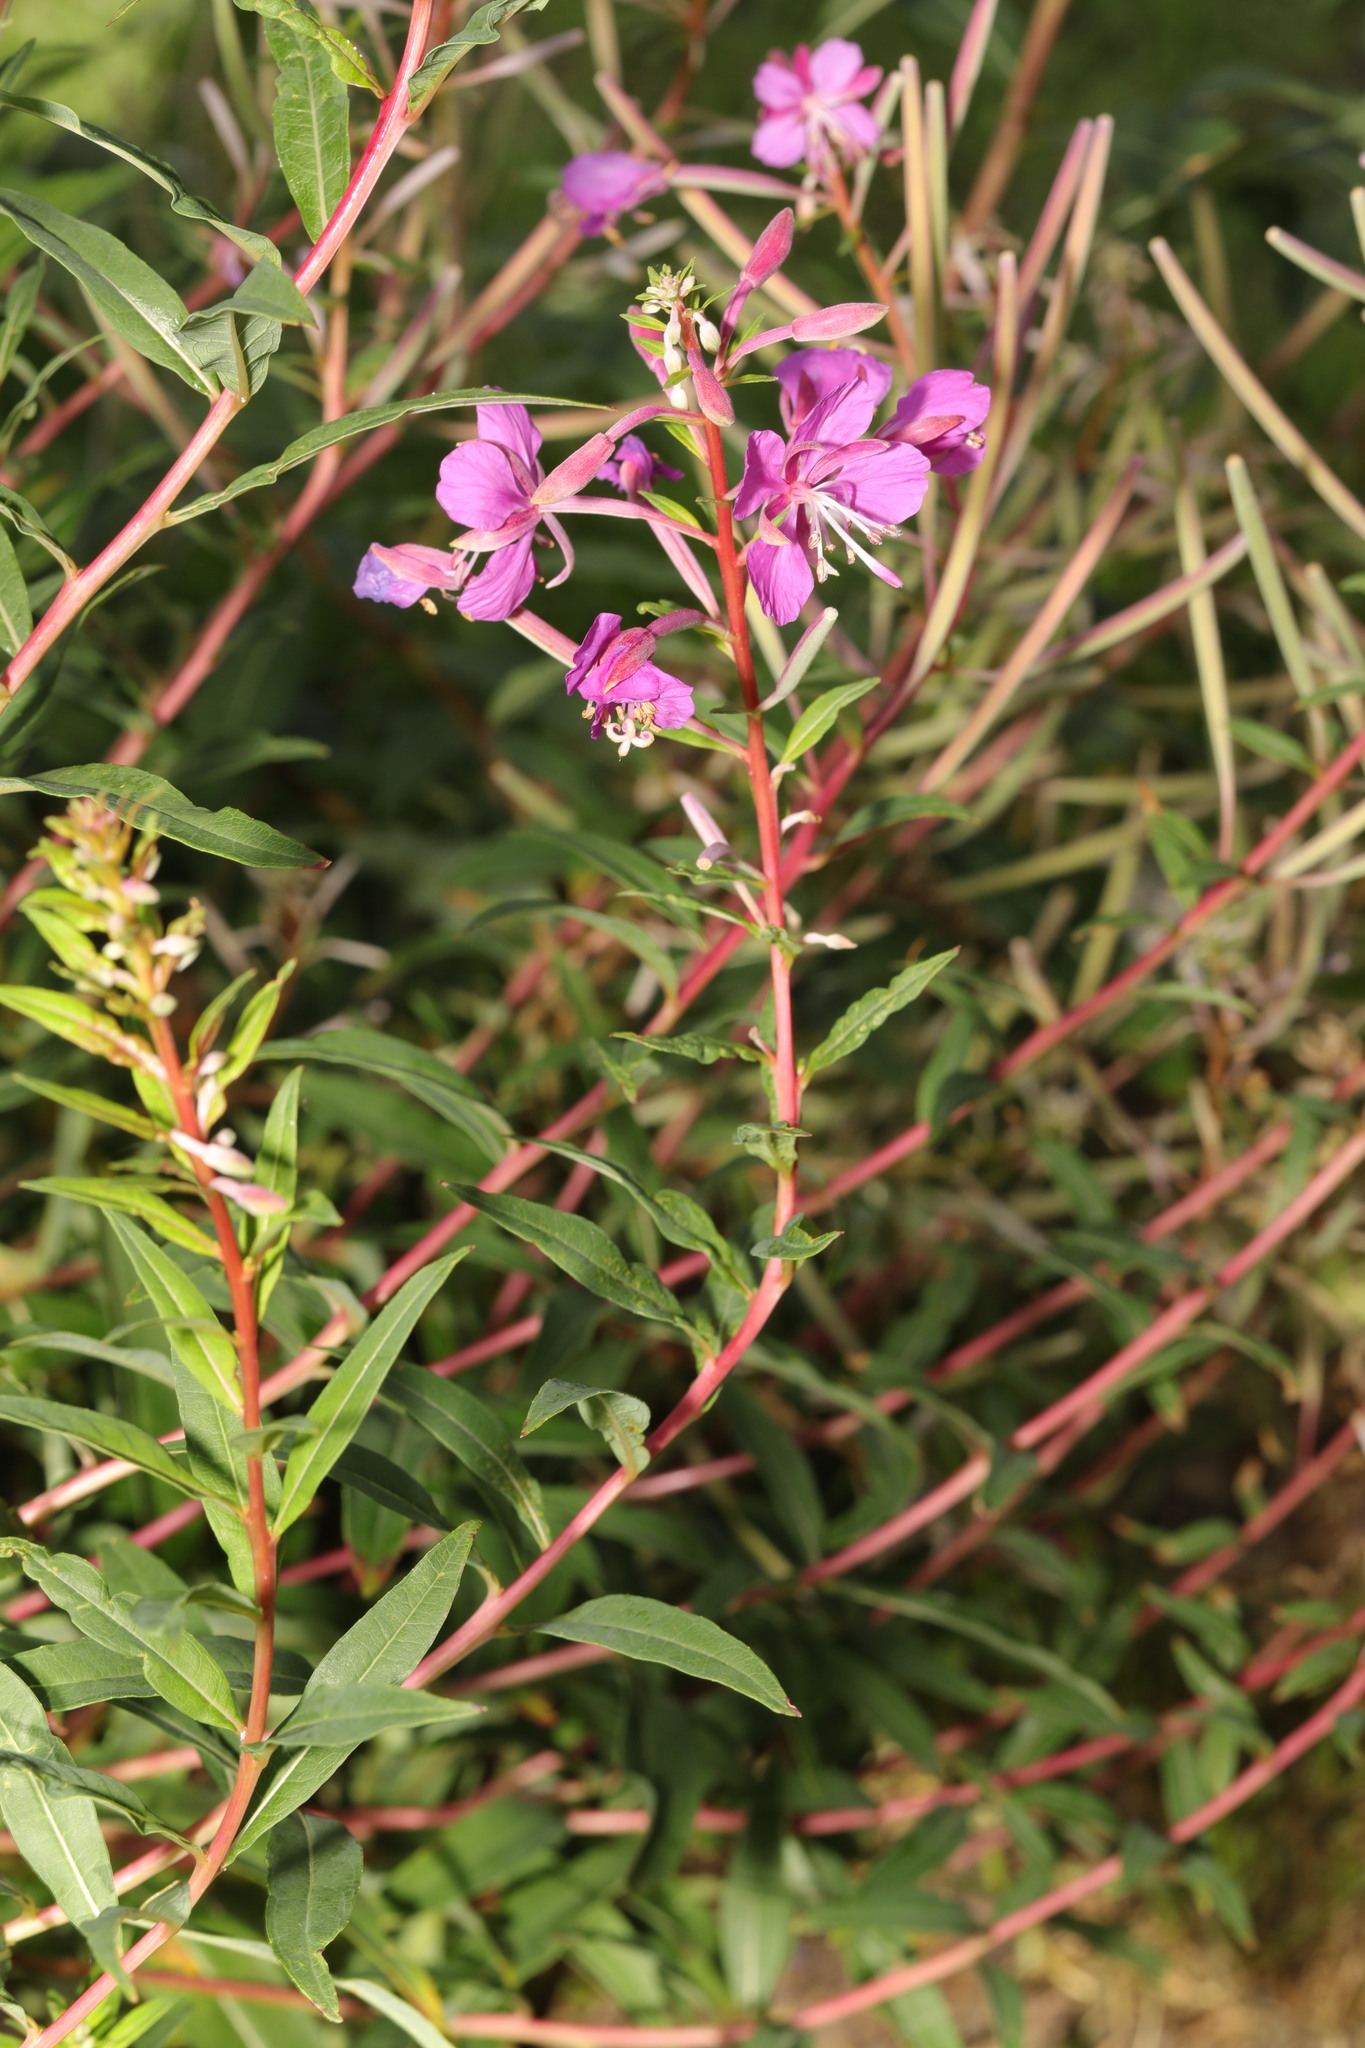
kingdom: Plantae
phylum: Tracheophyta
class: Magnoliopsida
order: Myrtales
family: Onagraceae
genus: Chamaenerion
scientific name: Chamaenerion angustifolium
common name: Fireweed
